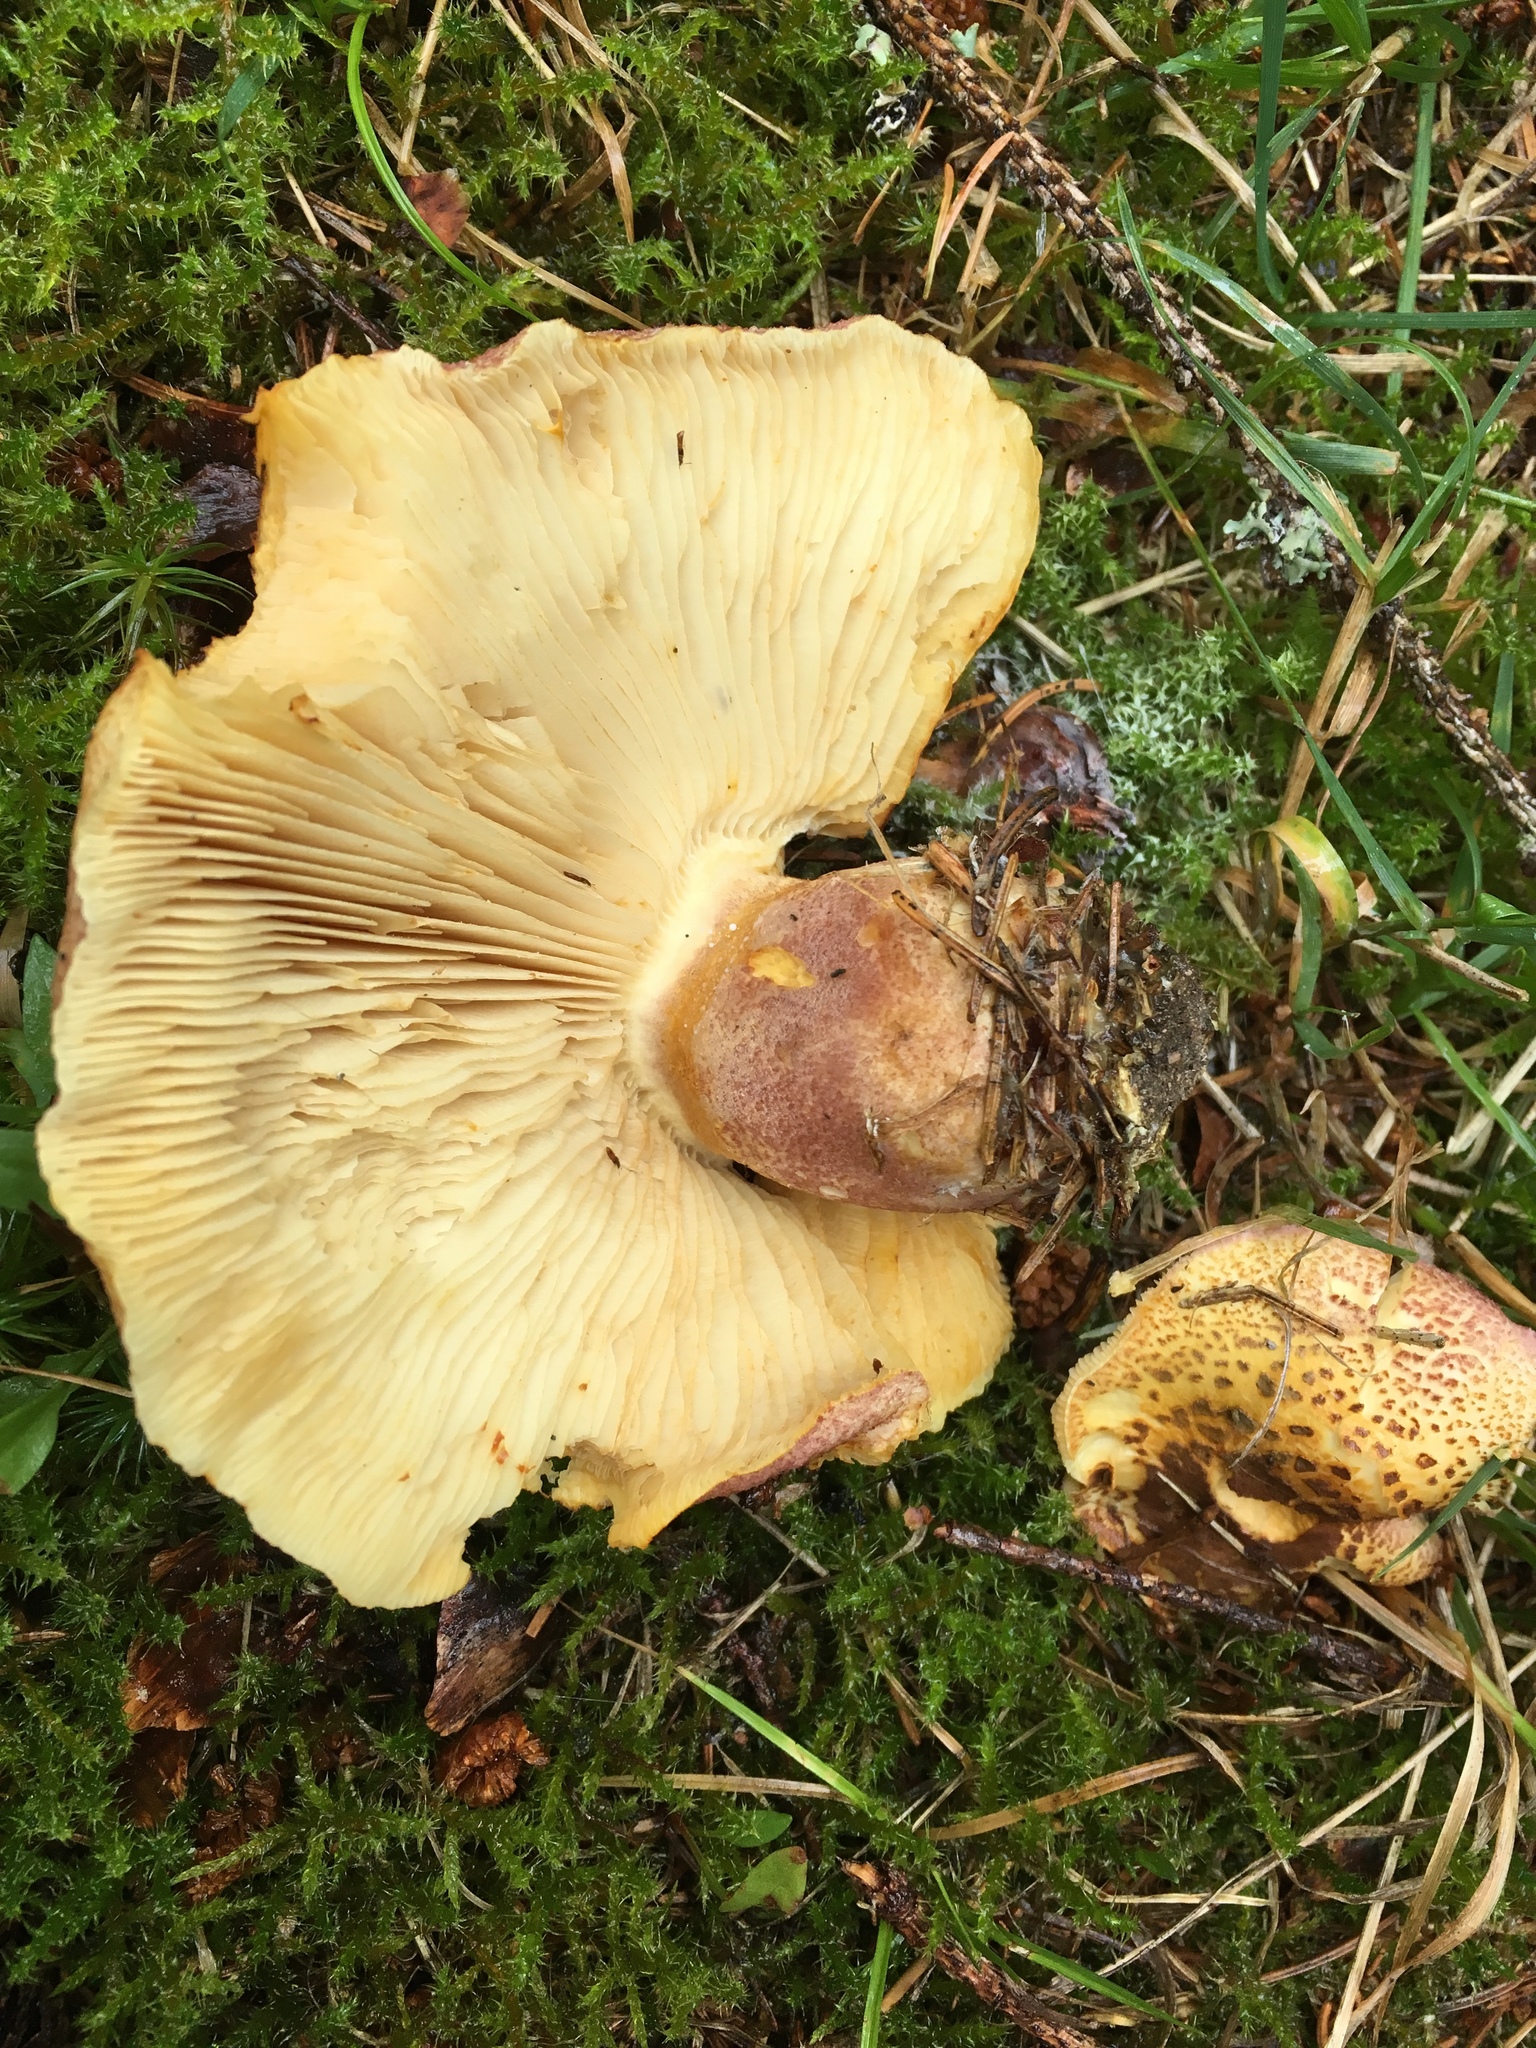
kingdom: Fungi
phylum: Basidiomycota
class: Agaricomycetes
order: Agaricales
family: Tricholomataceae
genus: Tricholomopsis
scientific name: Tricholomopsis rutilans
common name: Plums and custard
